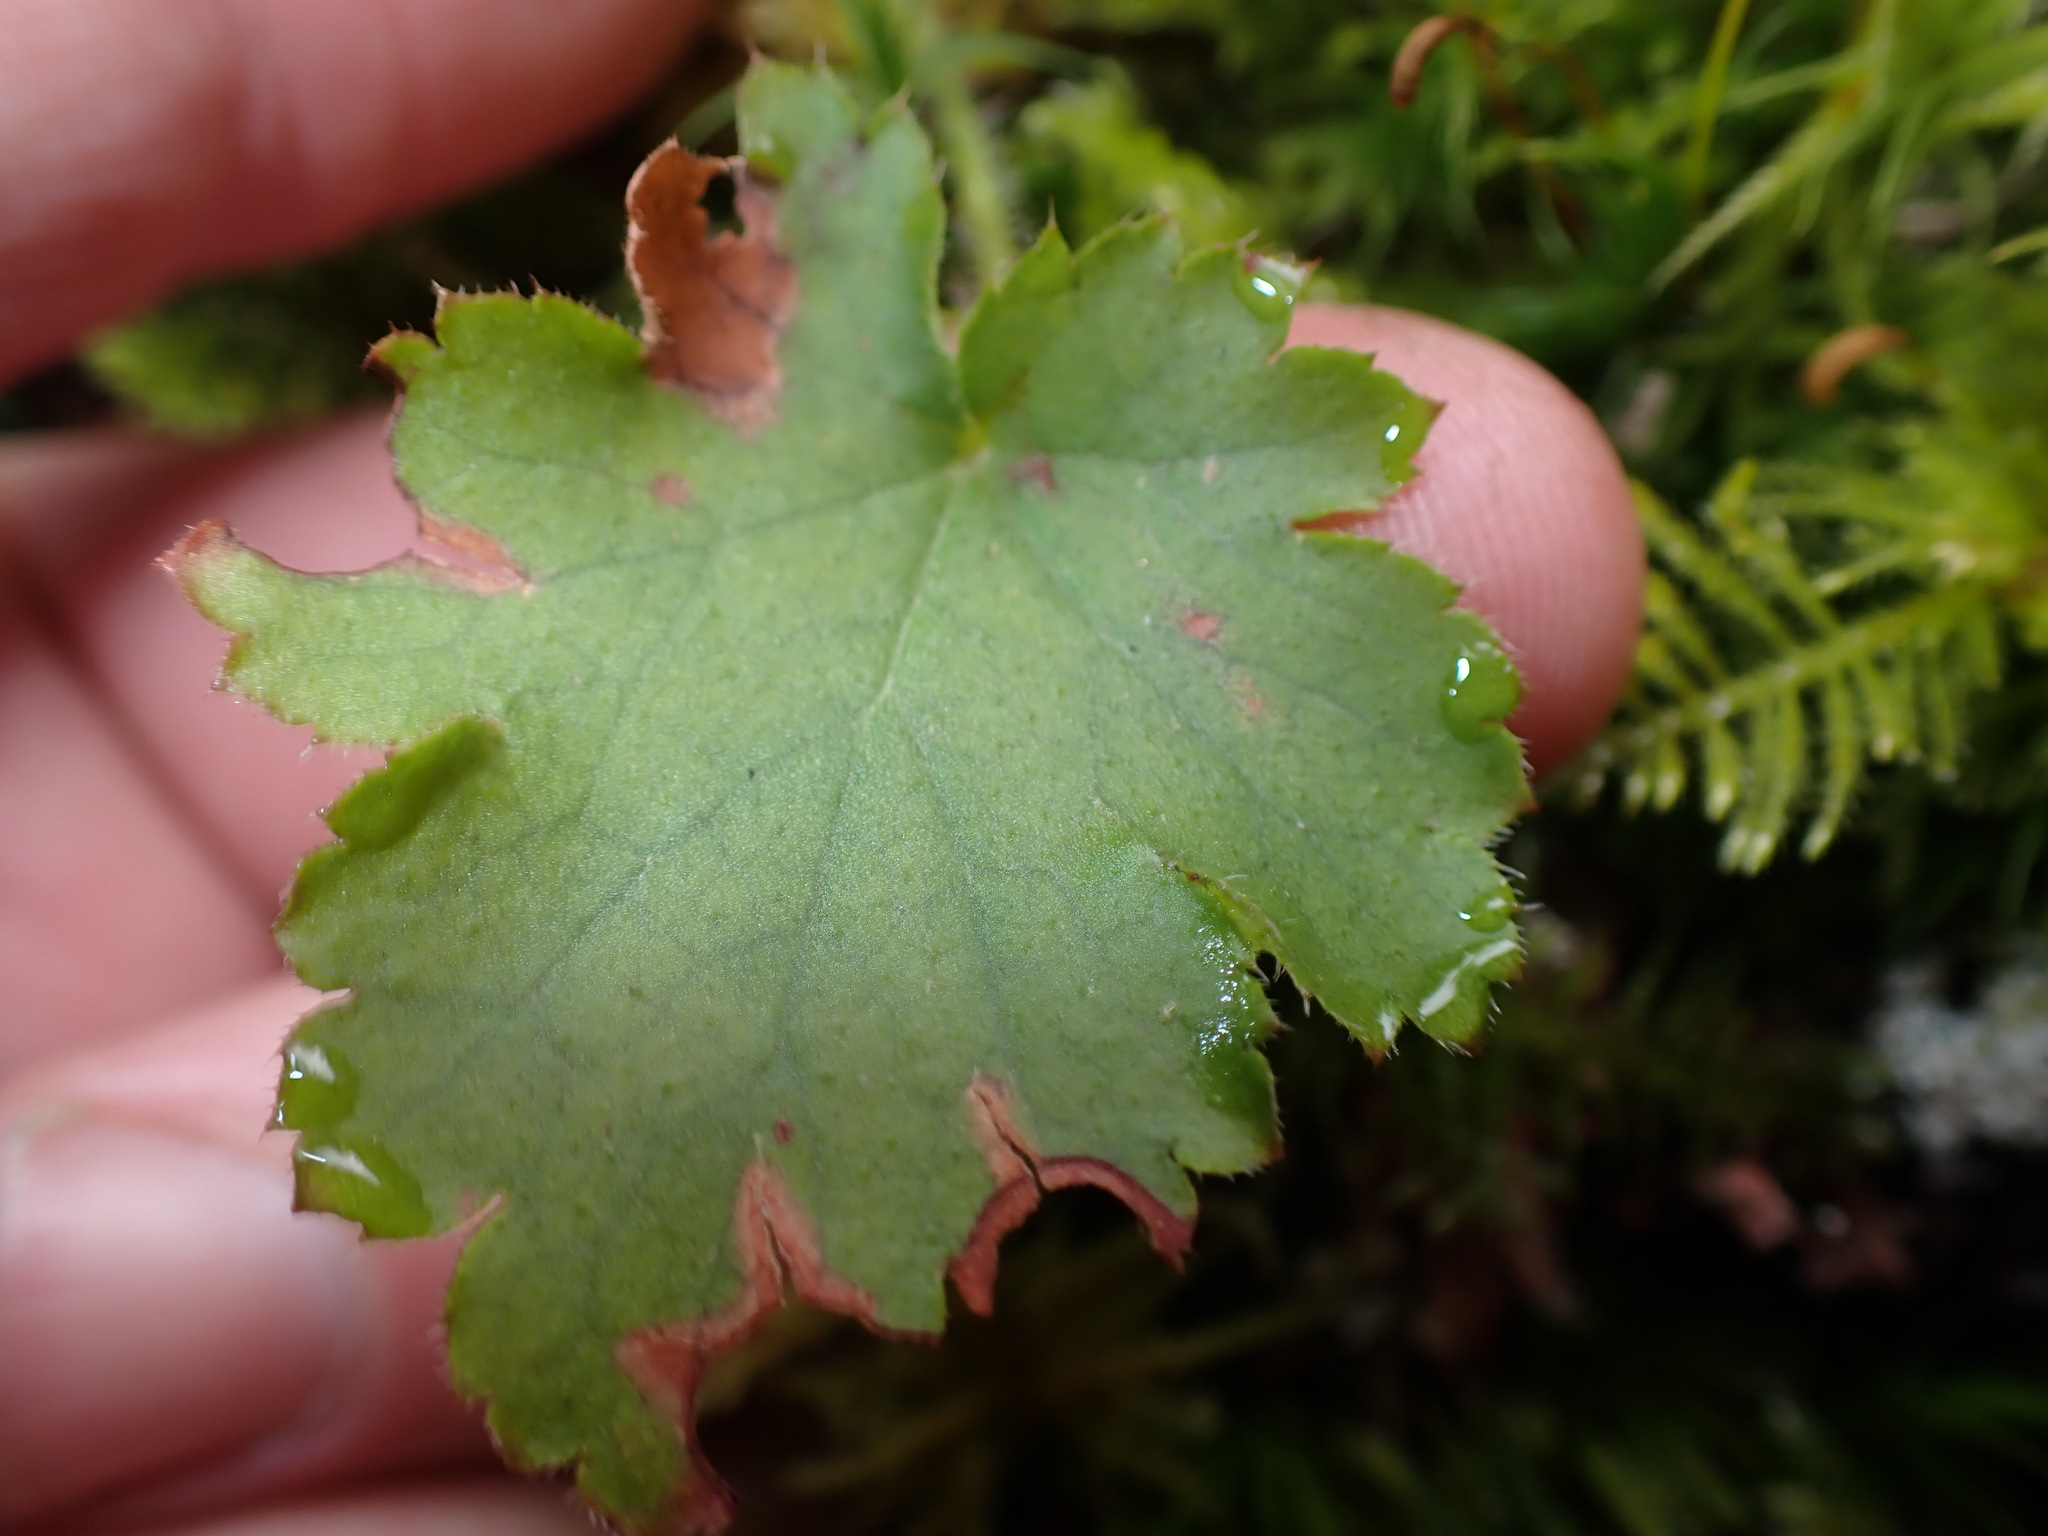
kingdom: Plantae
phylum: Tracheophyta
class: Magnoliopsida
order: Saxifragales
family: Saxifragaceae
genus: Heuchera
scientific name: Heuchera micrantha
